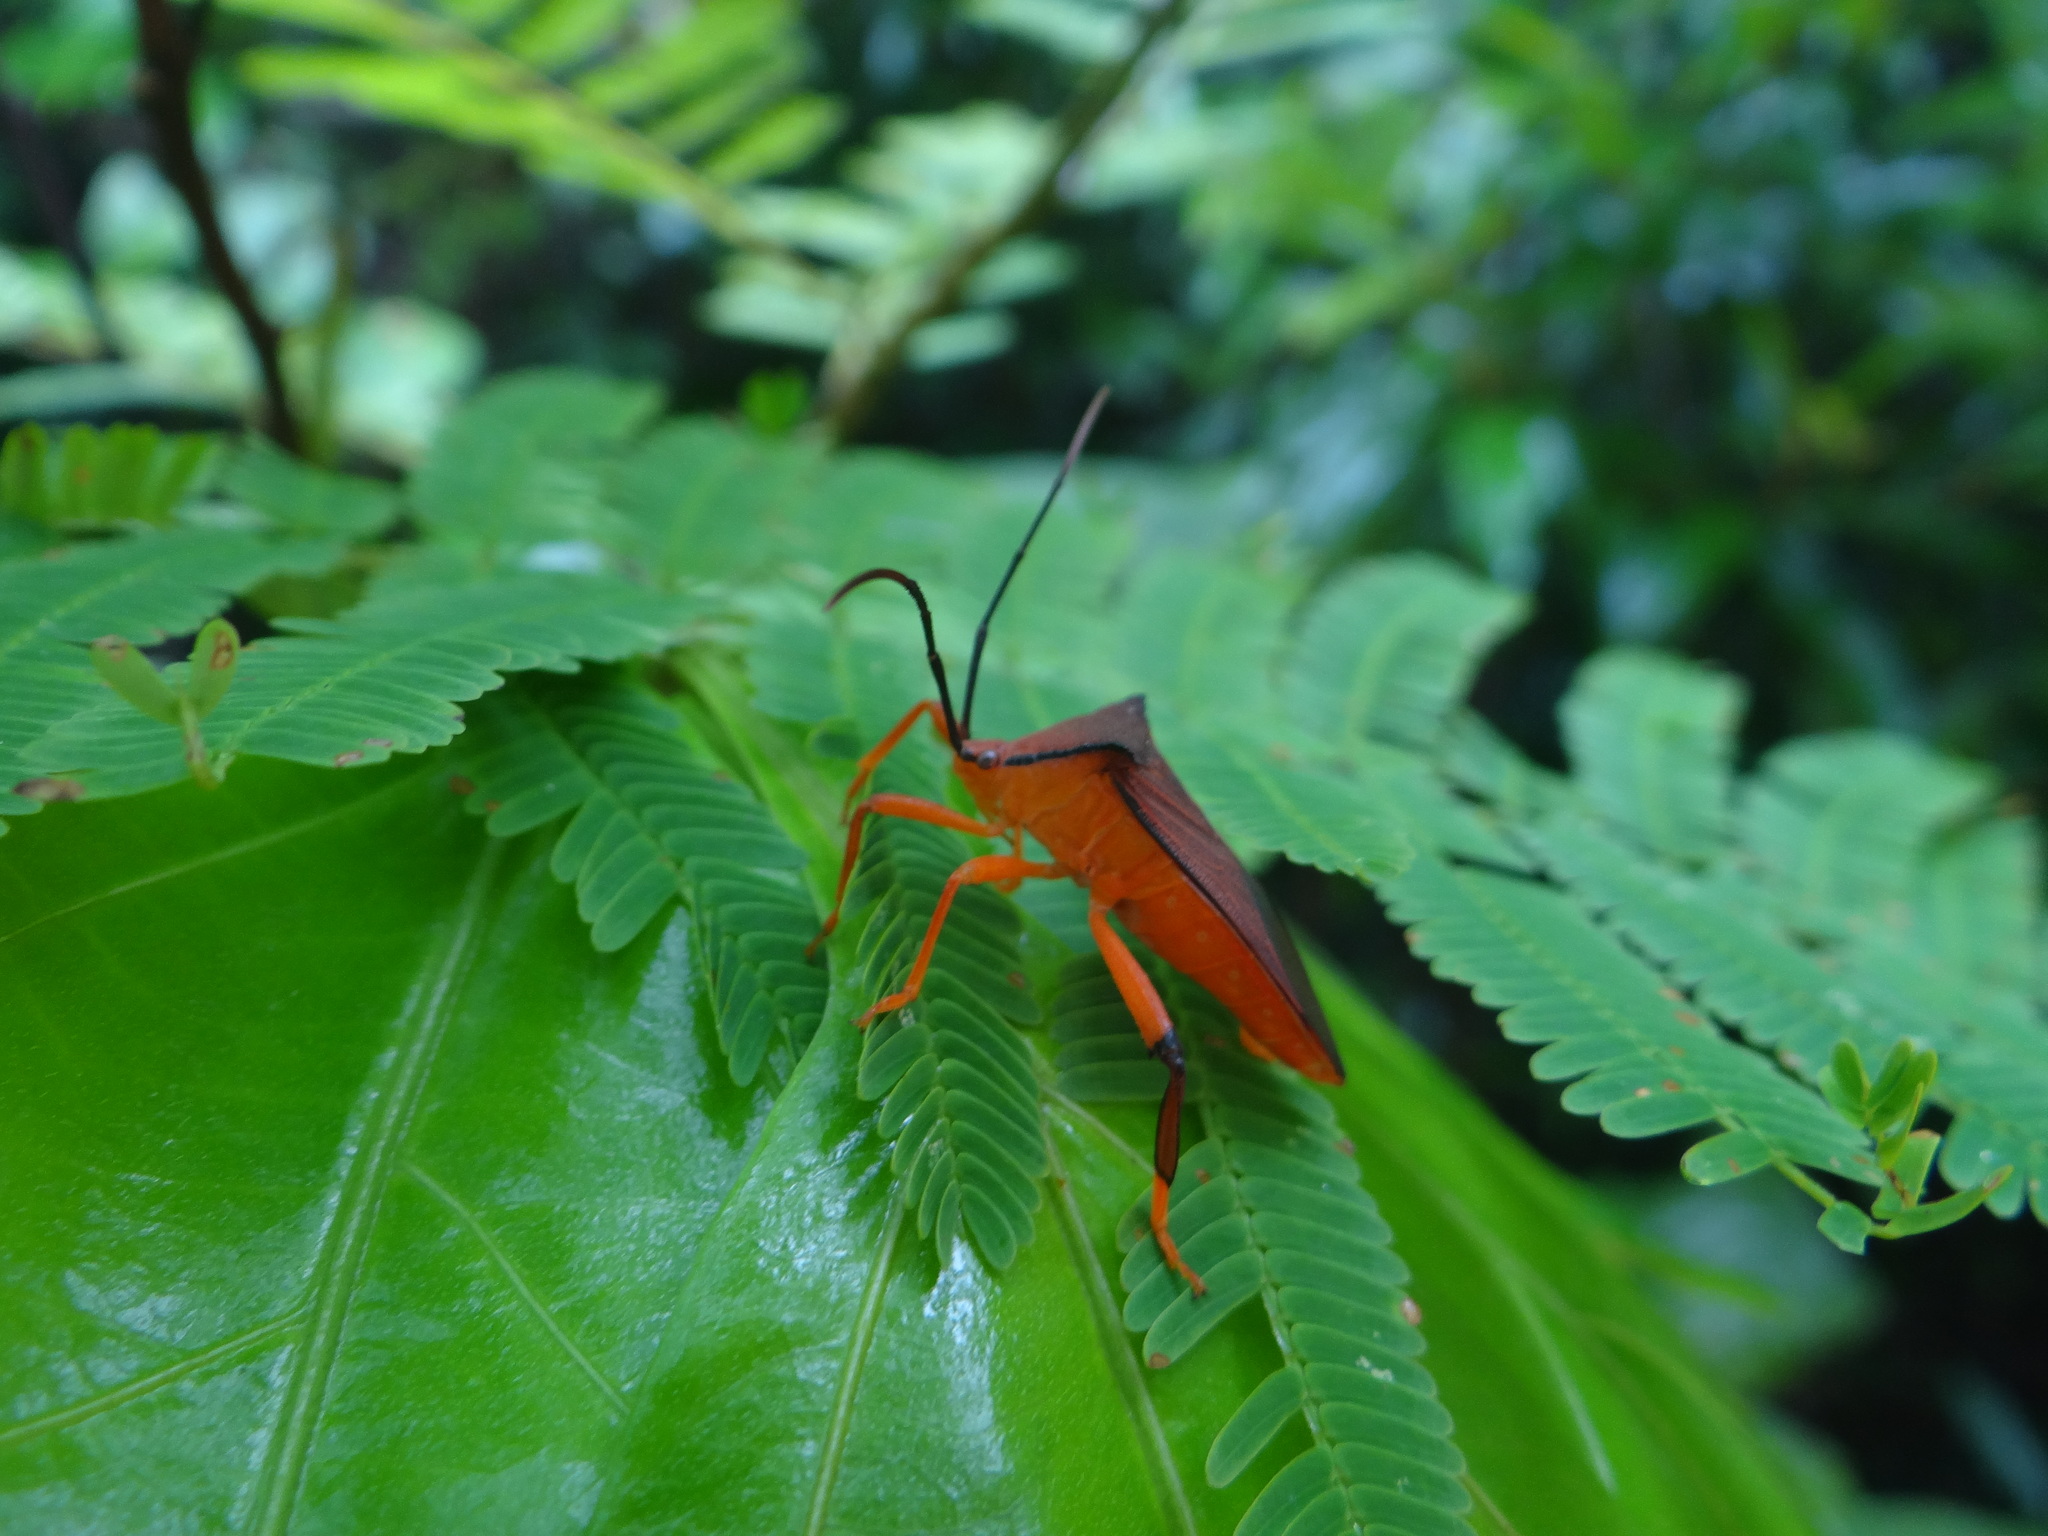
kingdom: Animalia
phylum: Arthropoda
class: Insecta
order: Hemiptera
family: Coreidae
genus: Melucha
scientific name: Melucha acutispina
